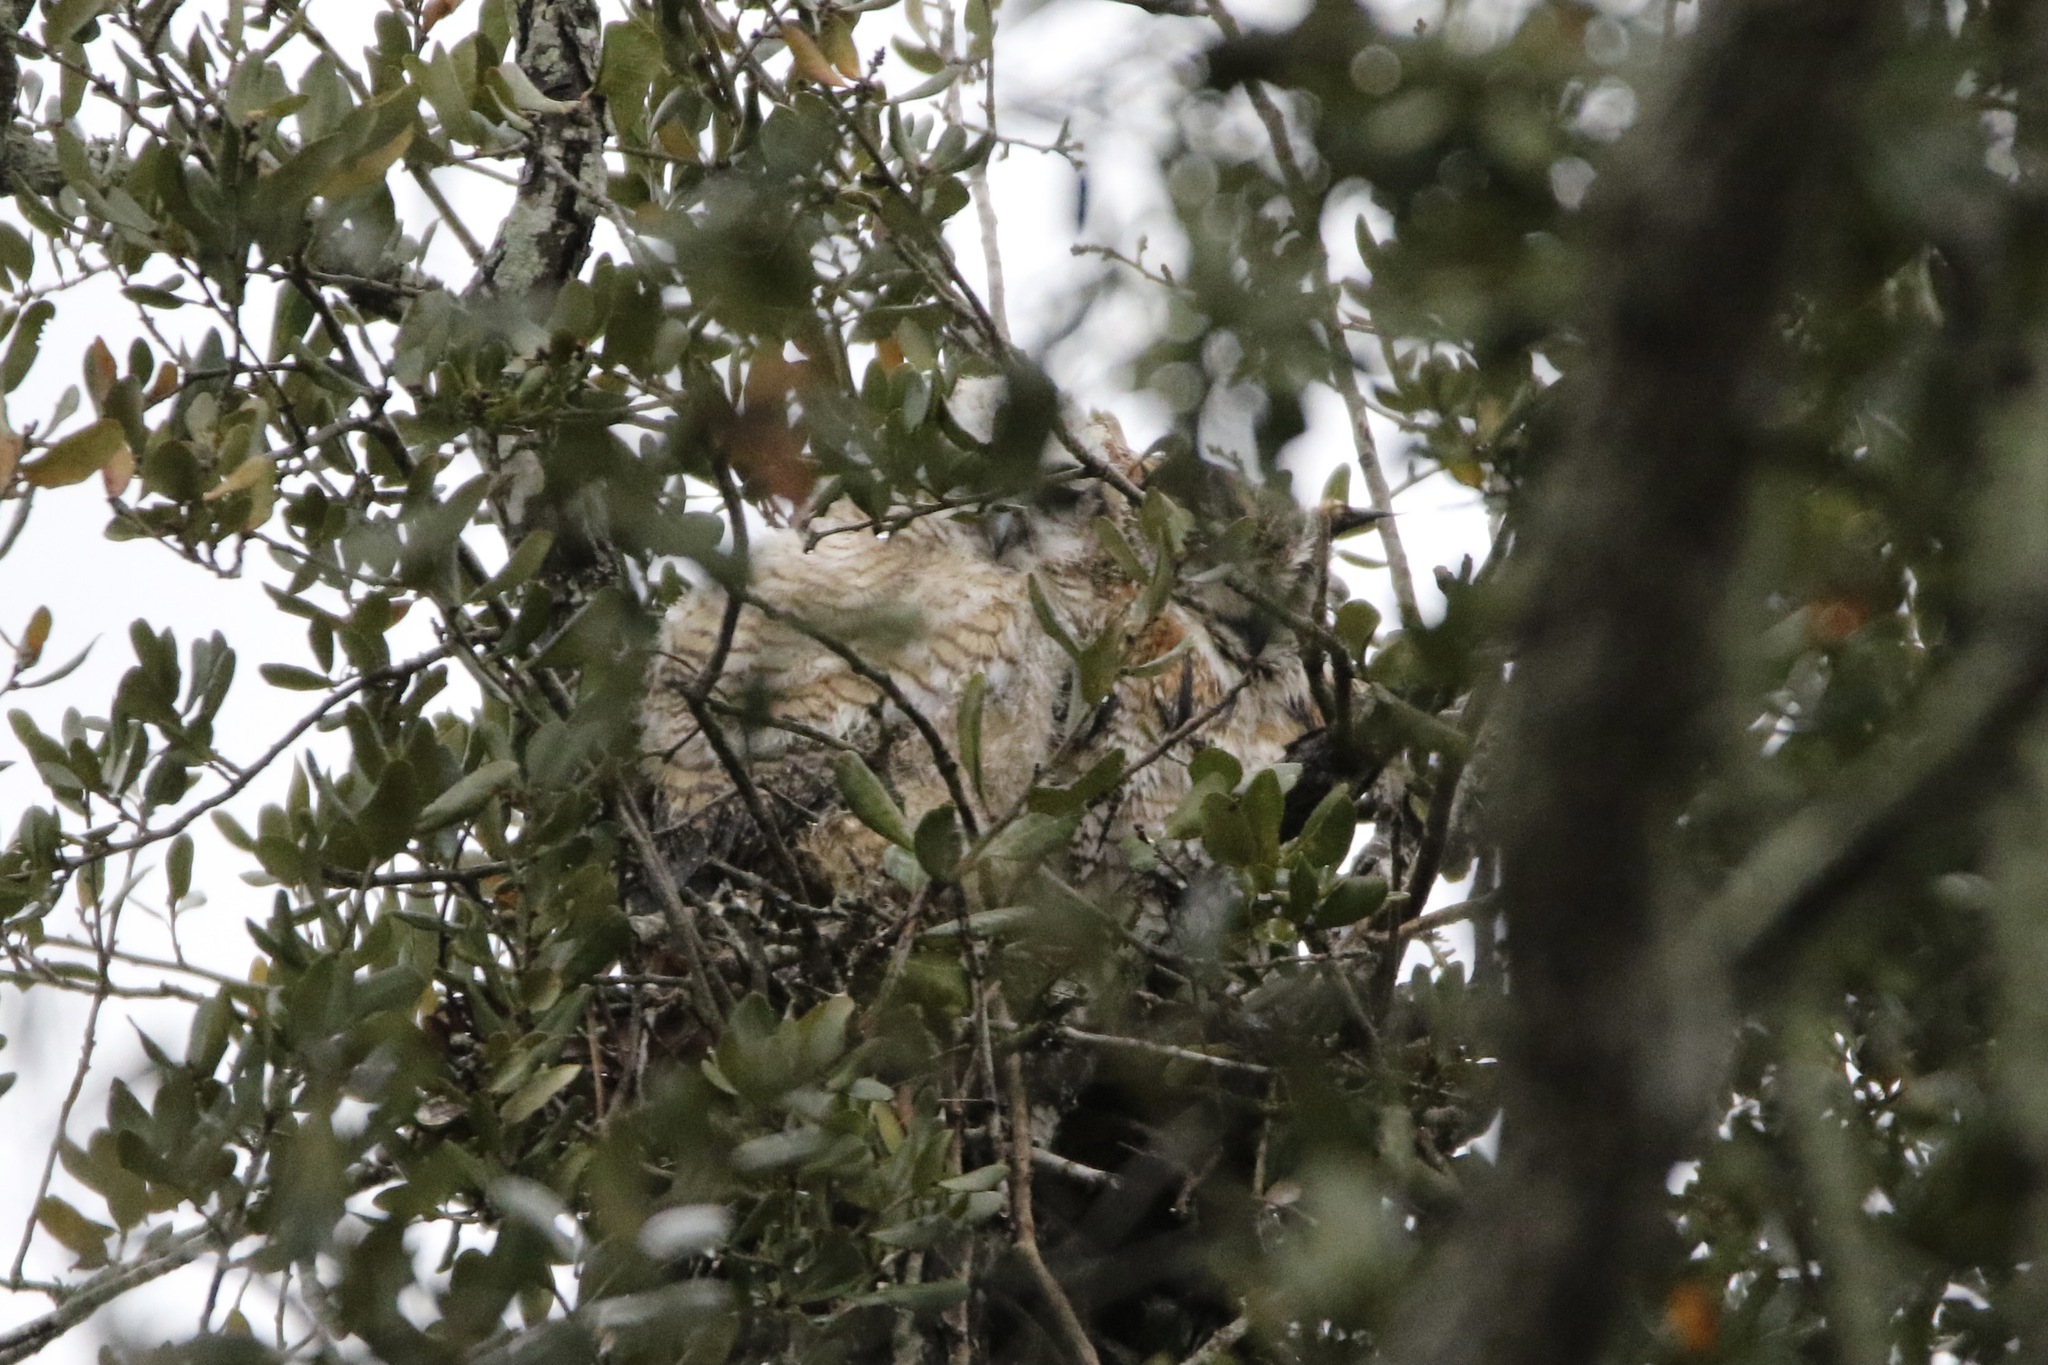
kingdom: Animalia
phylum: Chordata
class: Aves
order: Strigiformes
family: Strigidae
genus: Bubo
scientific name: Bubo virginianus
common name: Great horned owl
